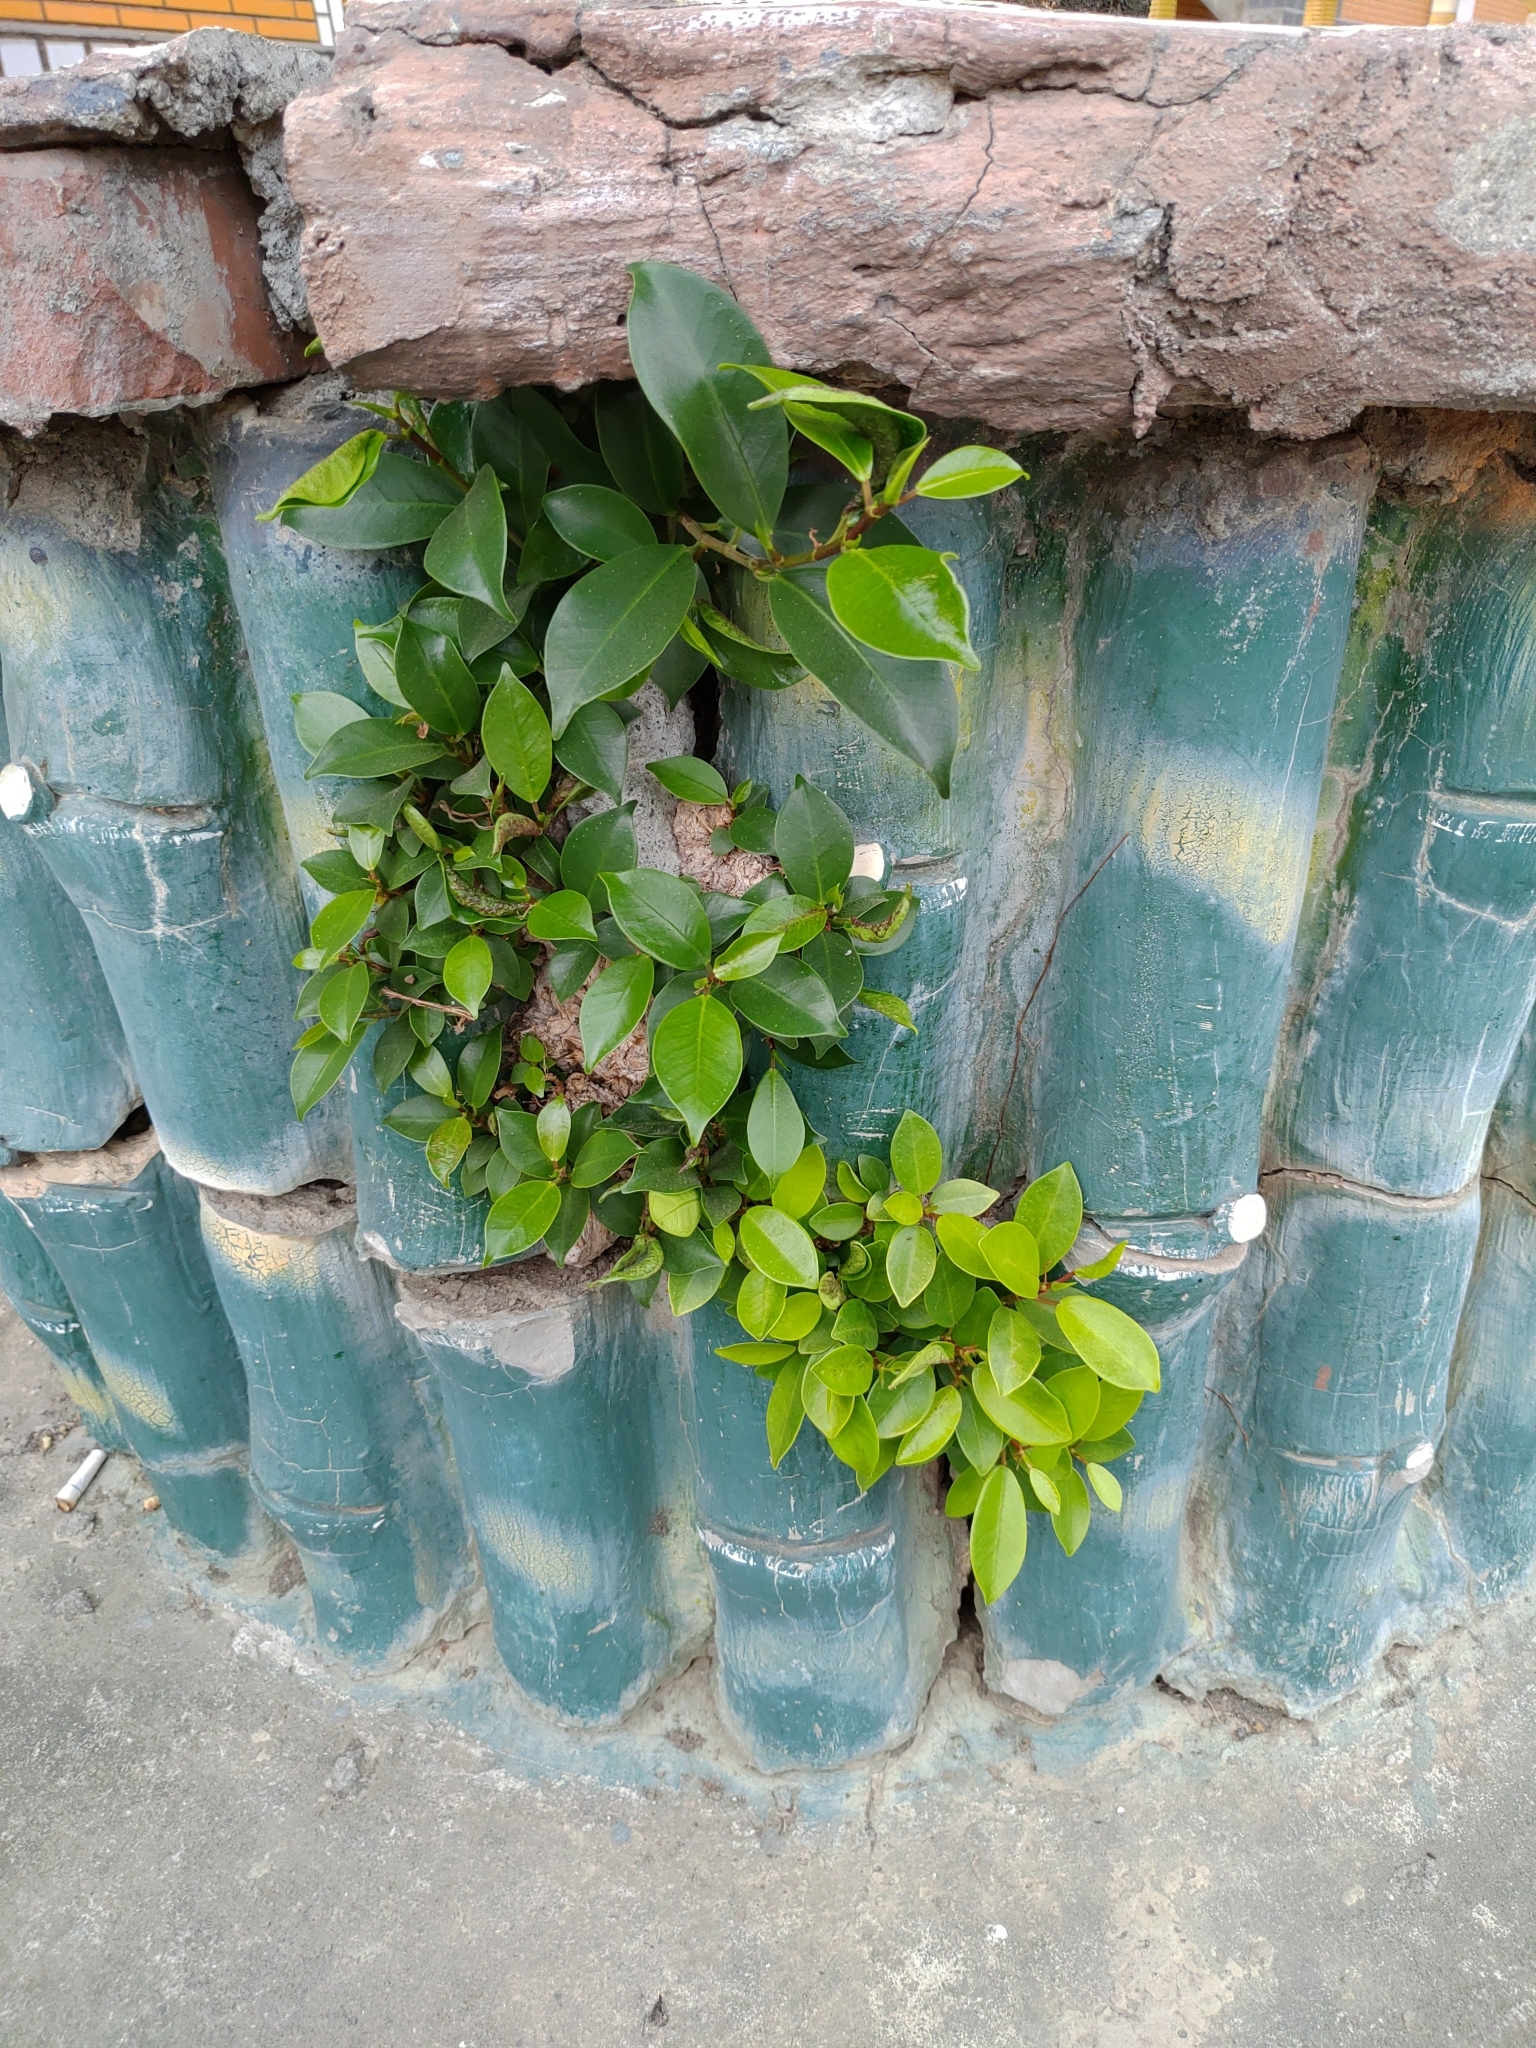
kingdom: Plantae
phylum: Tracheophyta
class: Magnoliopsida
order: Rosales
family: Moraceae
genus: Ficus
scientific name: Ficus microcarpa
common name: Chinese banyan
